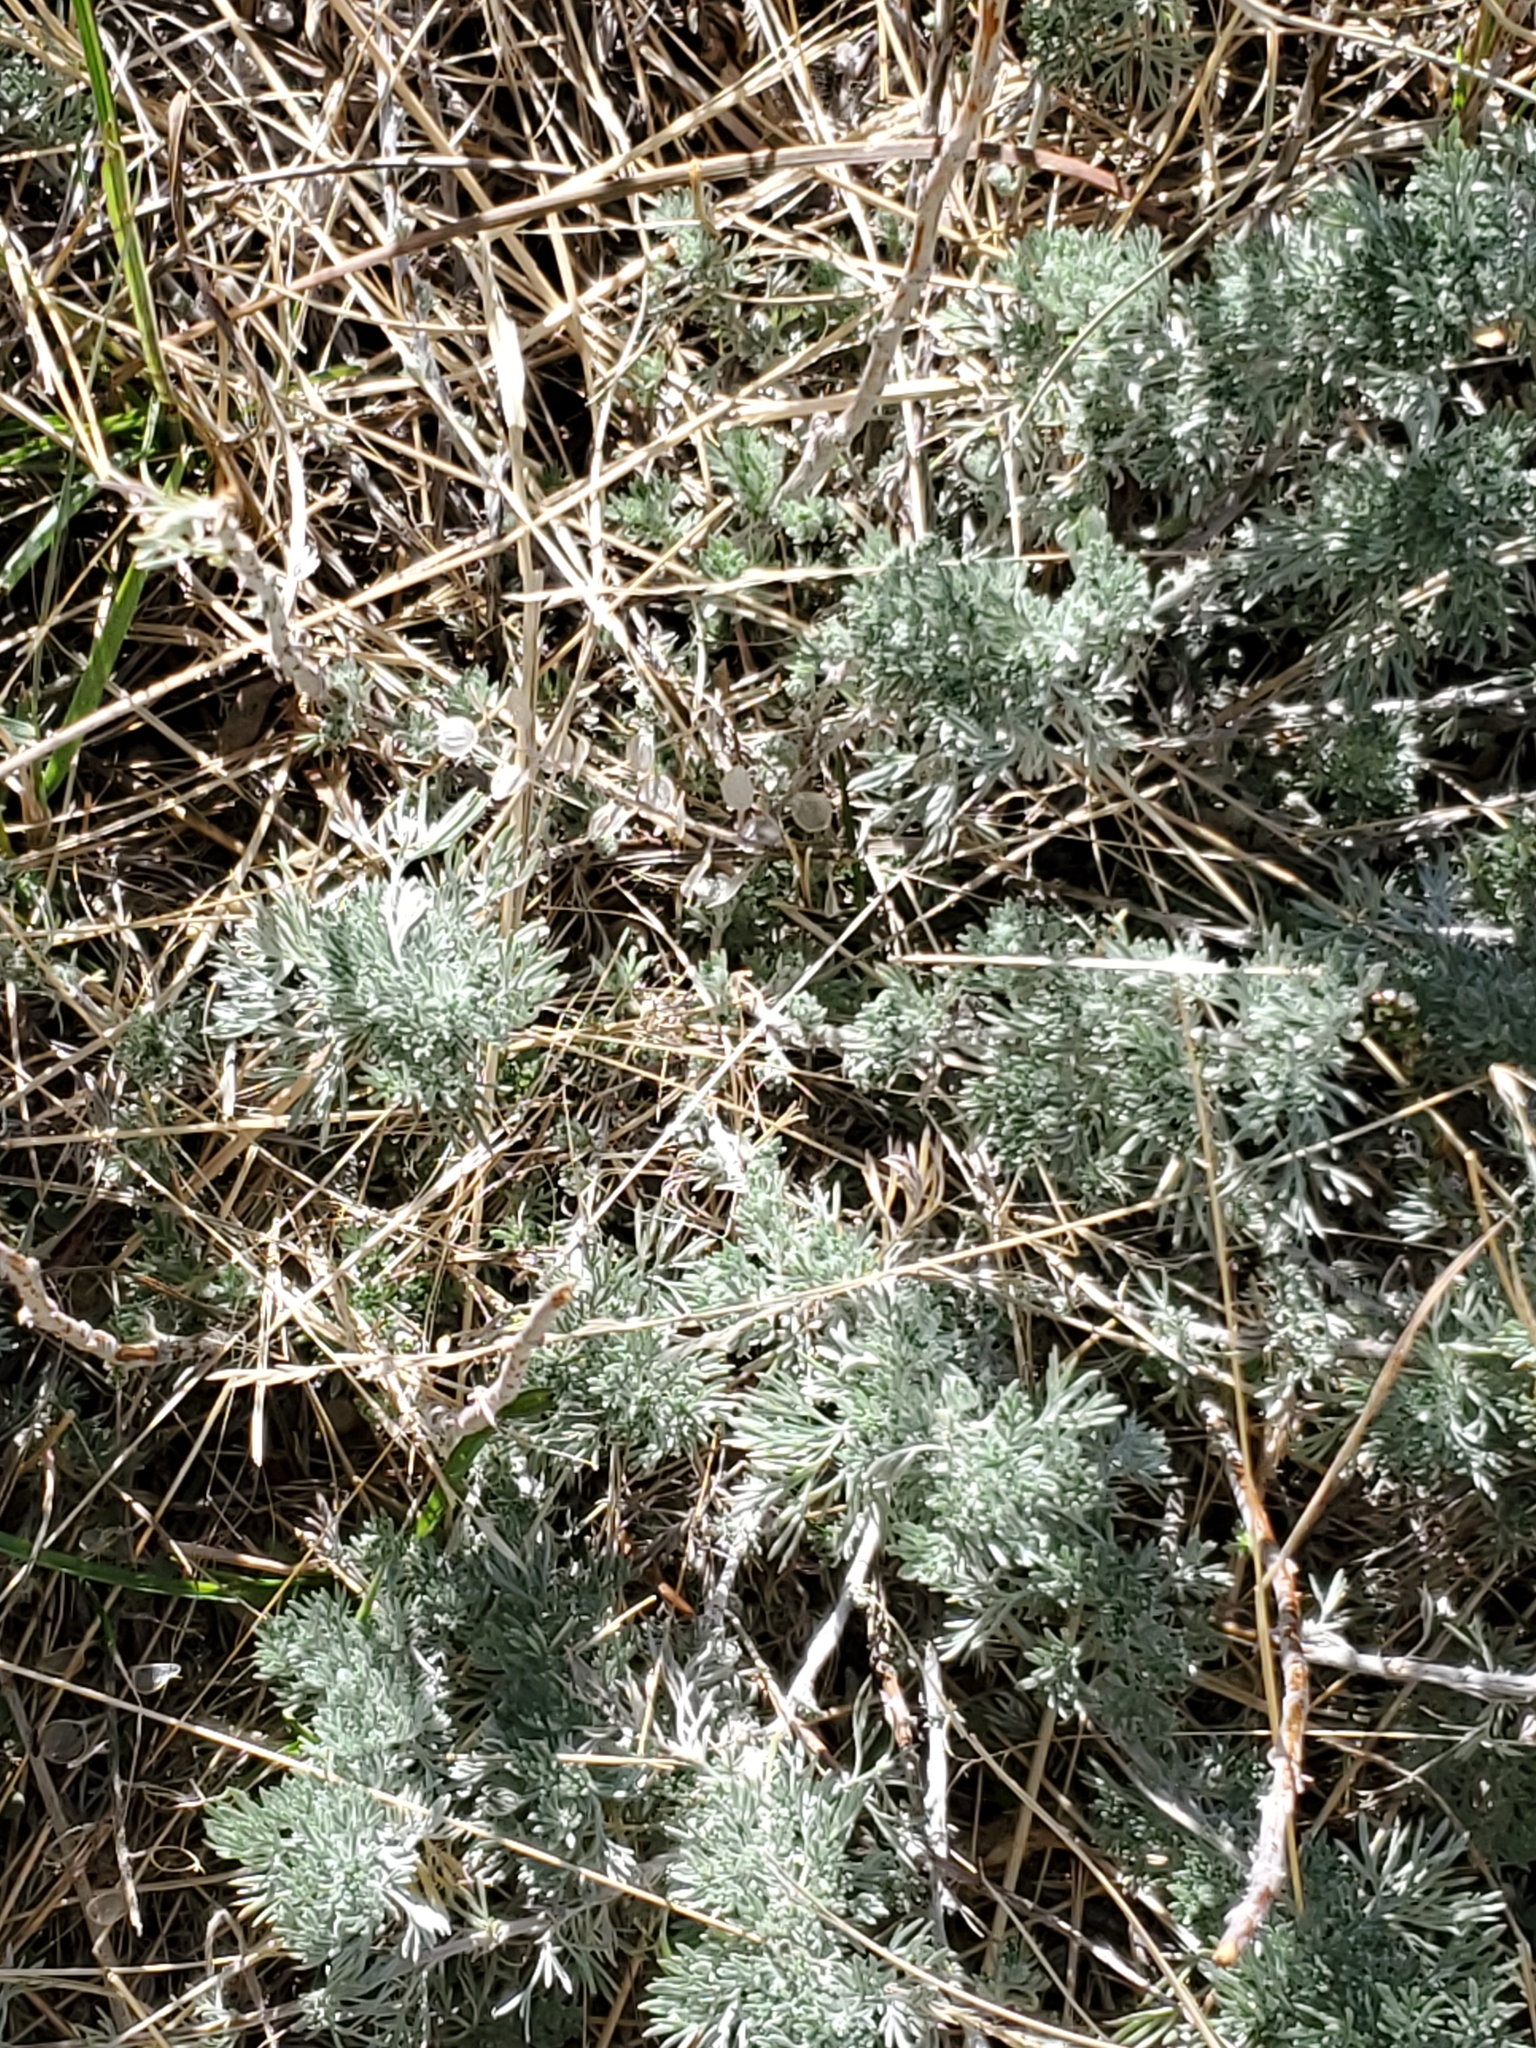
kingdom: Plantae
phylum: Tracheophyta
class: Magnoliopsida
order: Asterales
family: Asteraceae
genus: Artemisia
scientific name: Artemisia frigida
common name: Prairie sagewort
